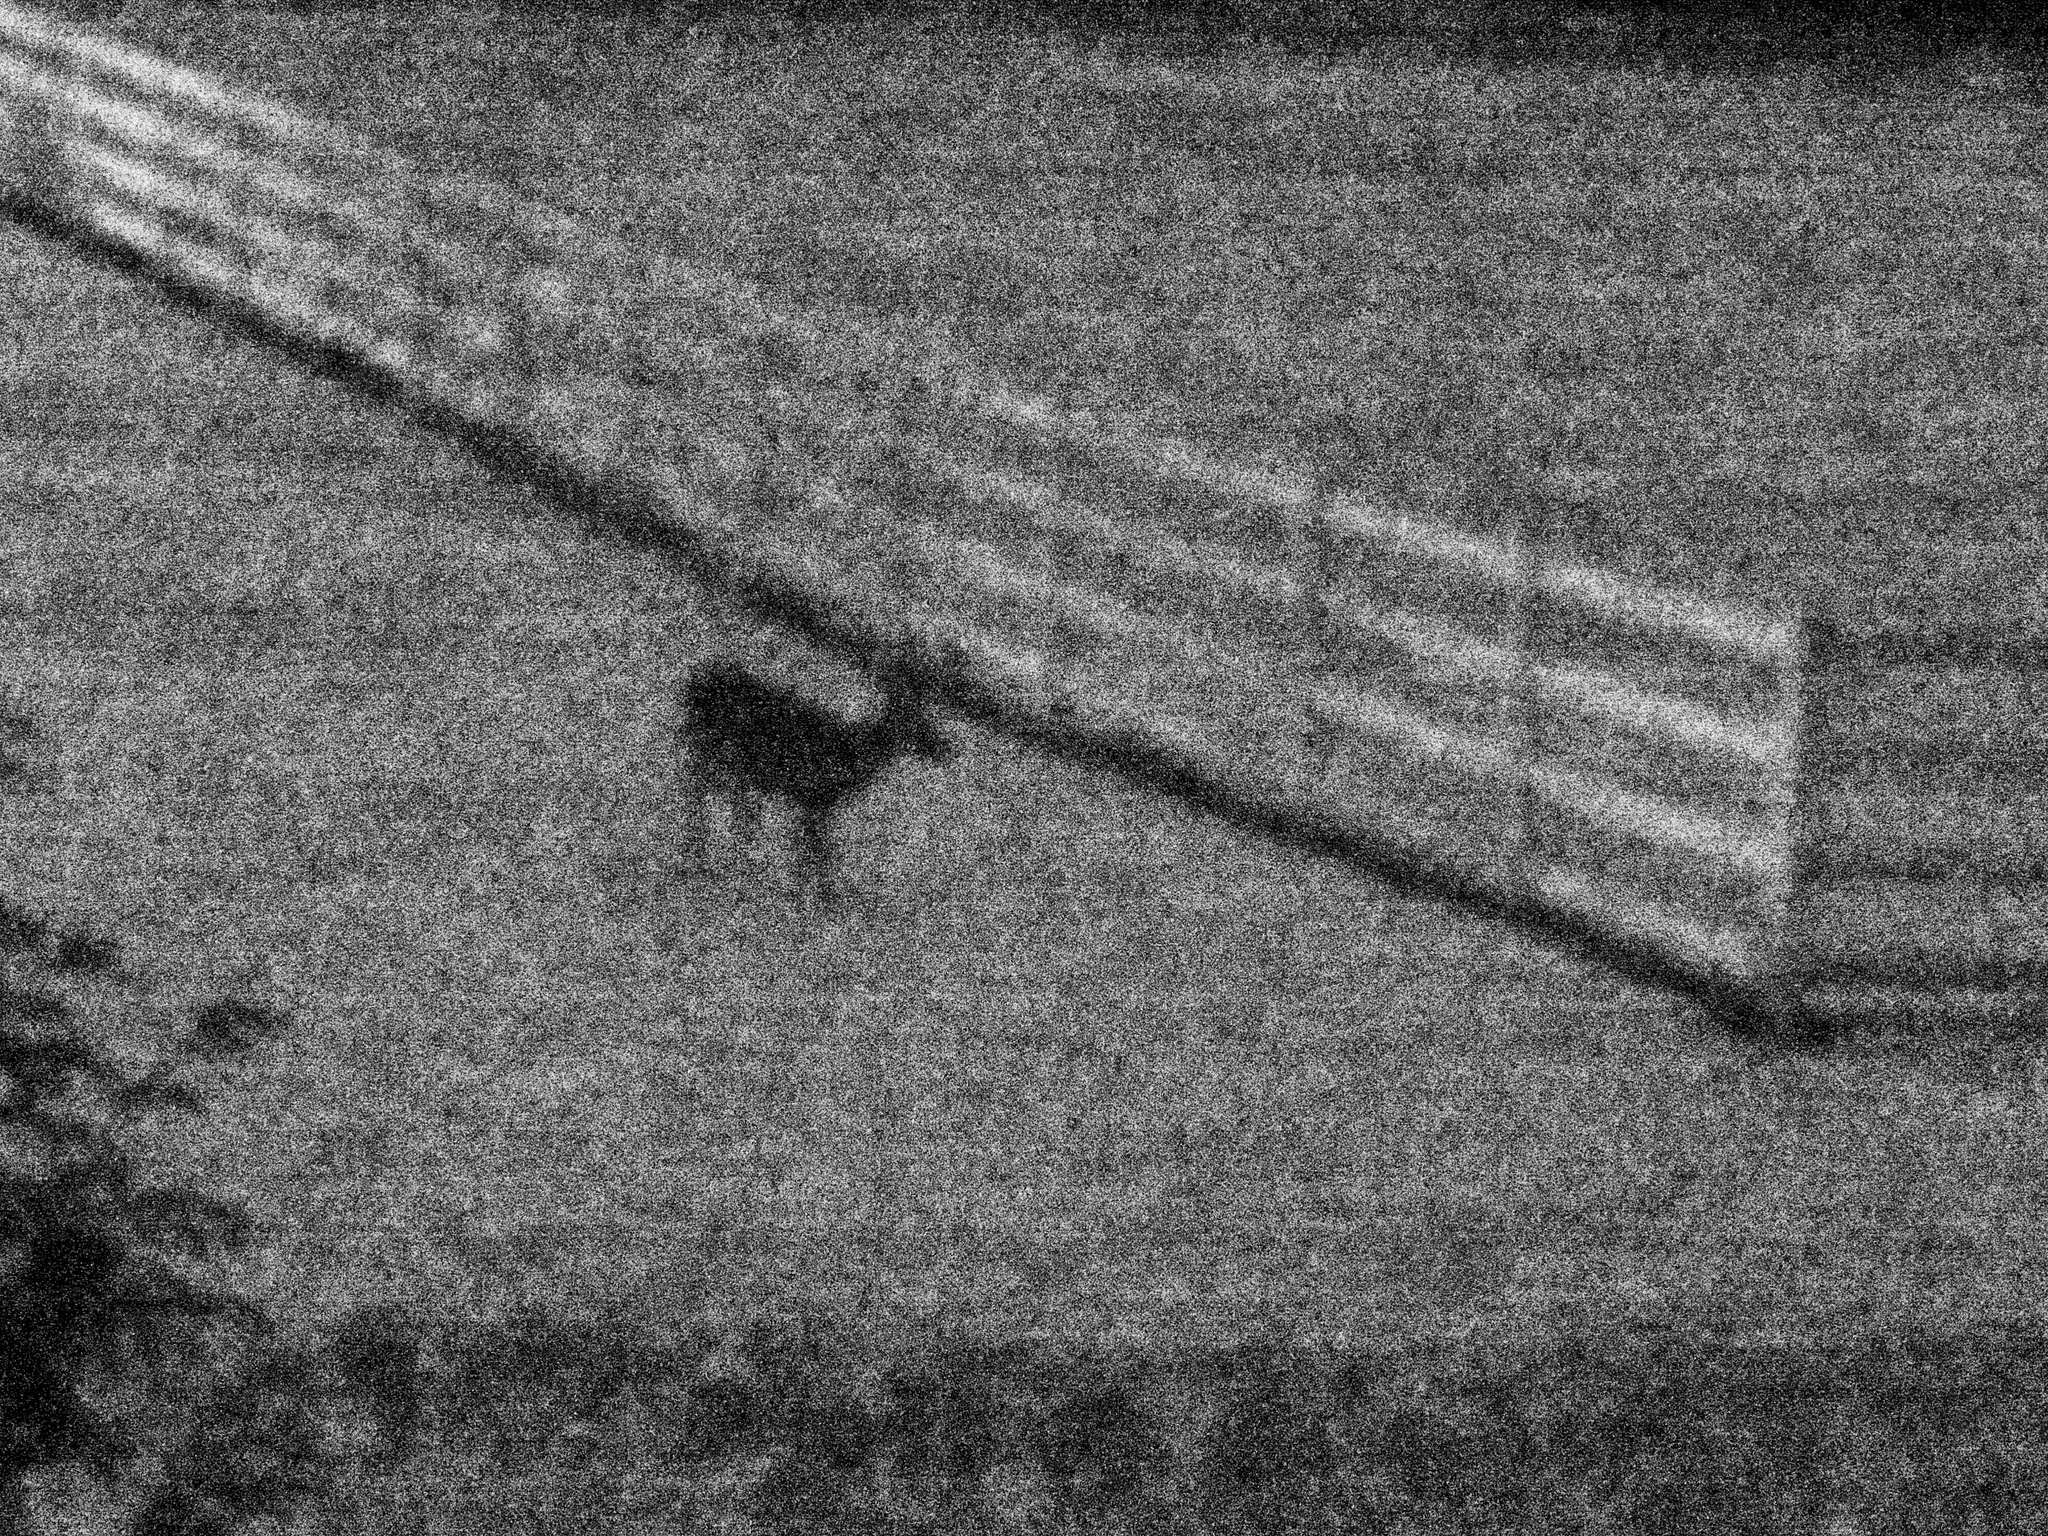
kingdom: Animalia
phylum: Chordata
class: Mammalia
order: Artiodactyla
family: Cervidae
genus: Odocoileus
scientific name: Odocoileus virginianus
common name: White-tailed deer
